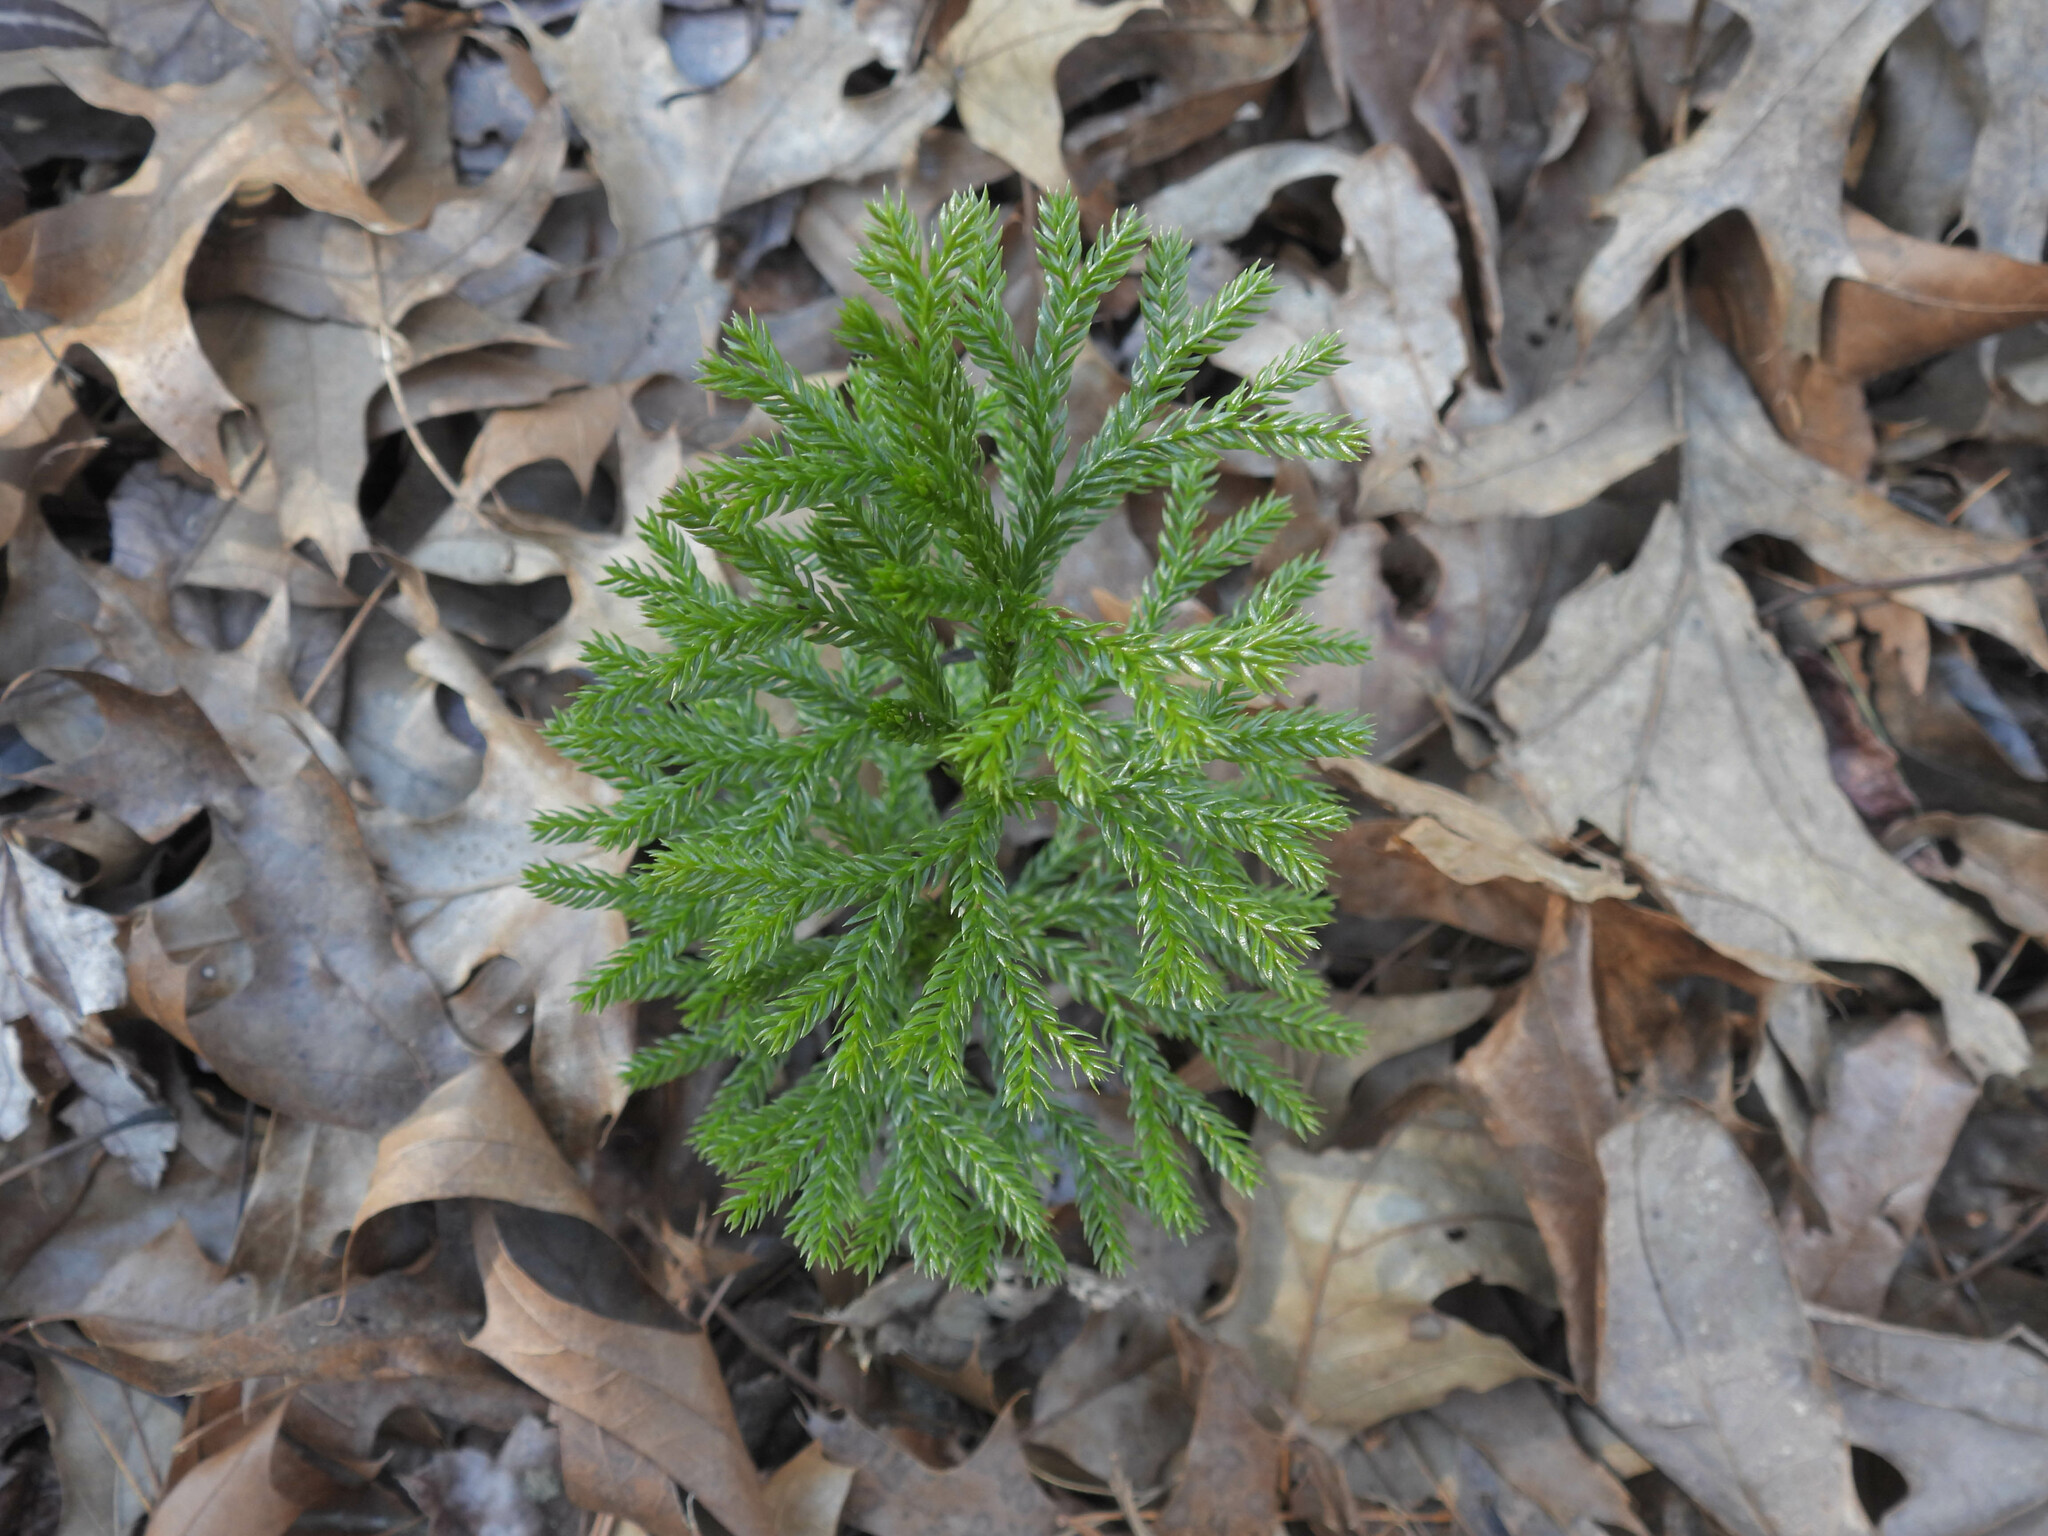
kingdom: Plantae
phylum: Tracheophyta
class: Lycopodiopsida
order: Lycopodiales
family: Lycopodiaceae
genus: Dendrolycopodium
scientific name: Dendrolycopodium obscurum
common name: Common ground-pine
